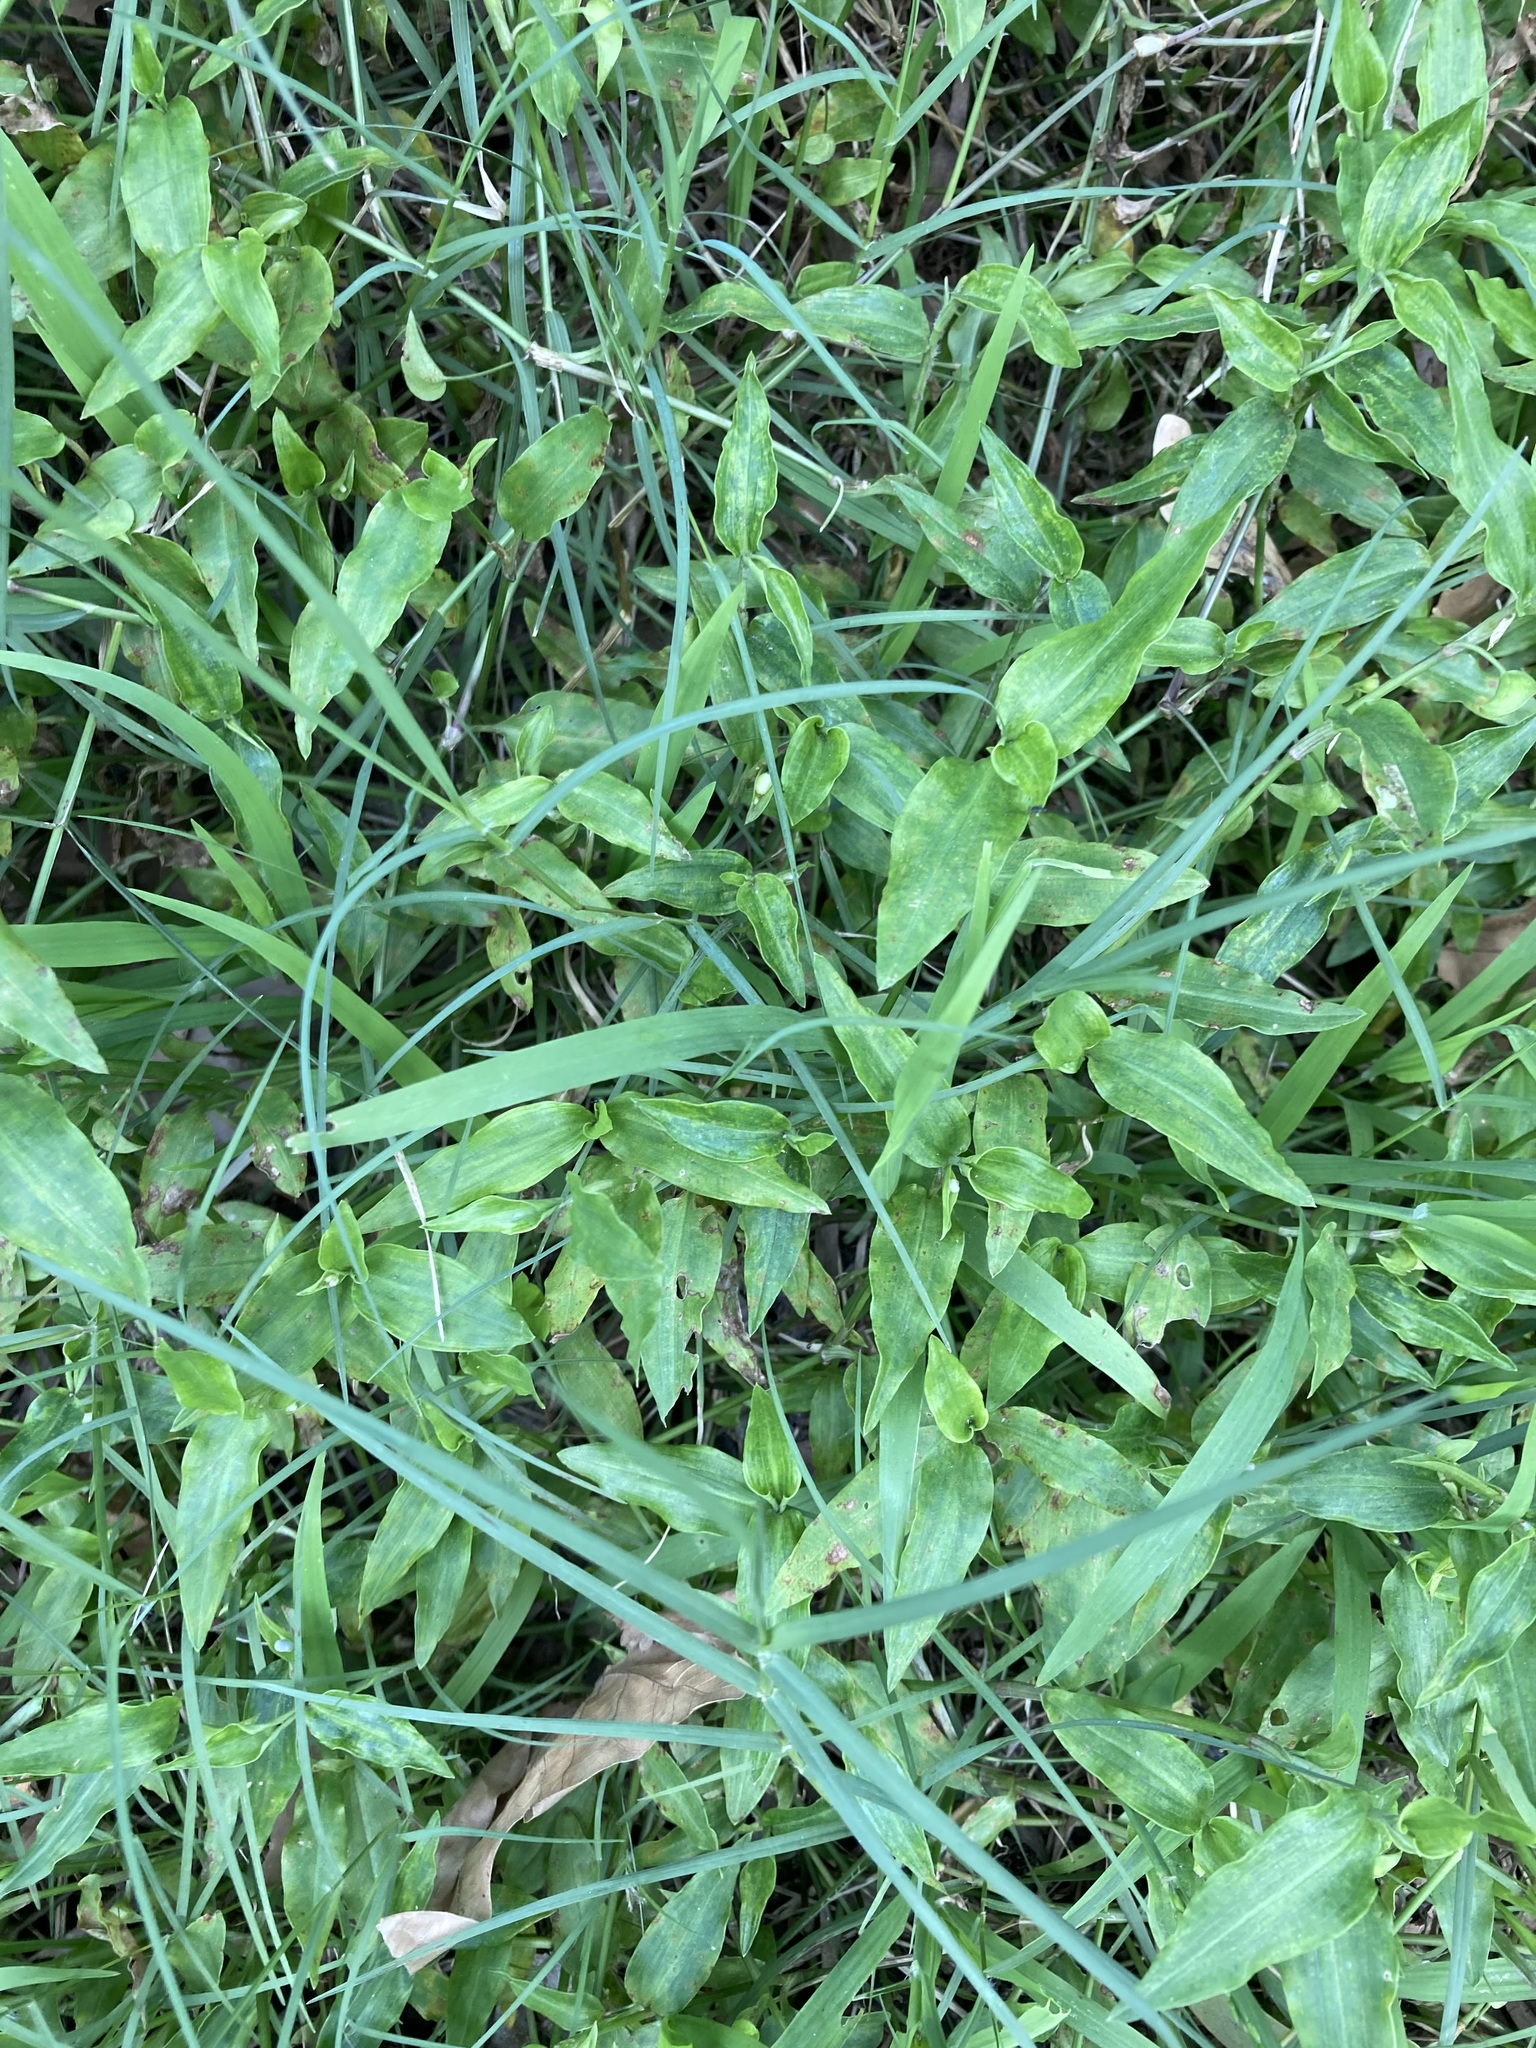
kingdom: Plantae
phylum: Tracheophyta
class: Liliopsida
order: Commelinales
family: Commelinaceae
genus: Commelina
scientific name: Commelina cyanea
